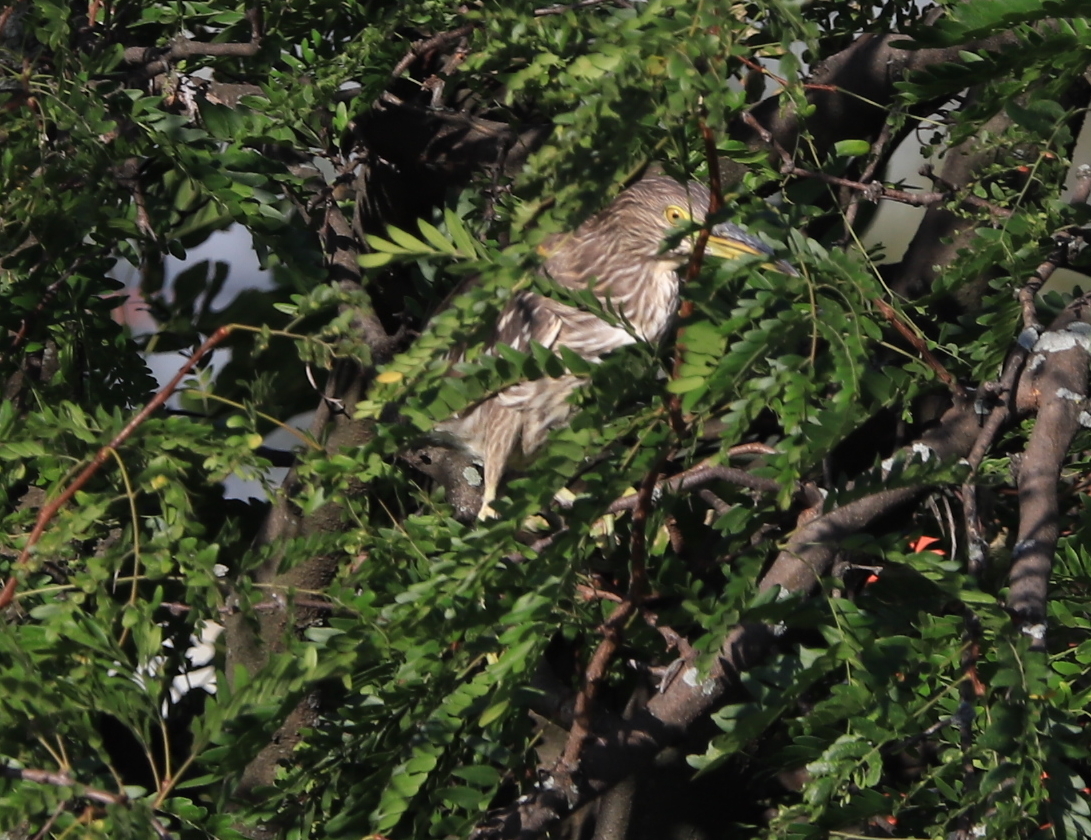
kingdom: Animalia
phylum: Chordata
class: Aves
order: Pelecaniformes
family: Ardeidae
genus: Nycticorax
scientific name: Nycticorax nycticorax
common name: Black-crowned night heron
